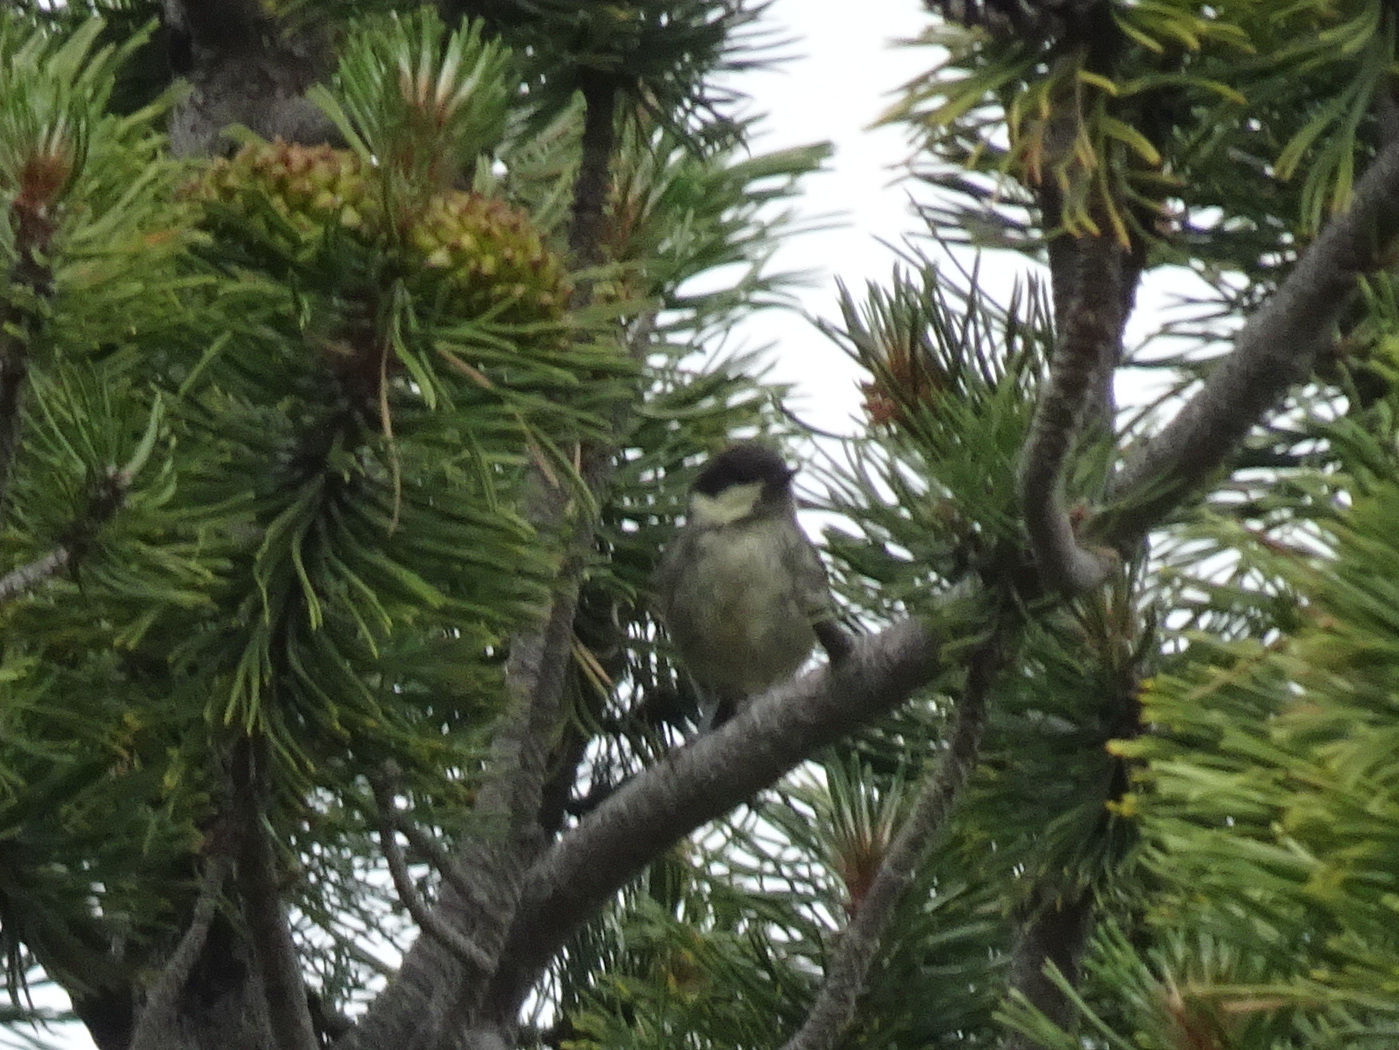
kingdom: Animalia
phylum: Chordata
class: Aves
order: Passeriformes
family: Paridae
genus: Parus
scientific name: Parus major
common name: Great tit
